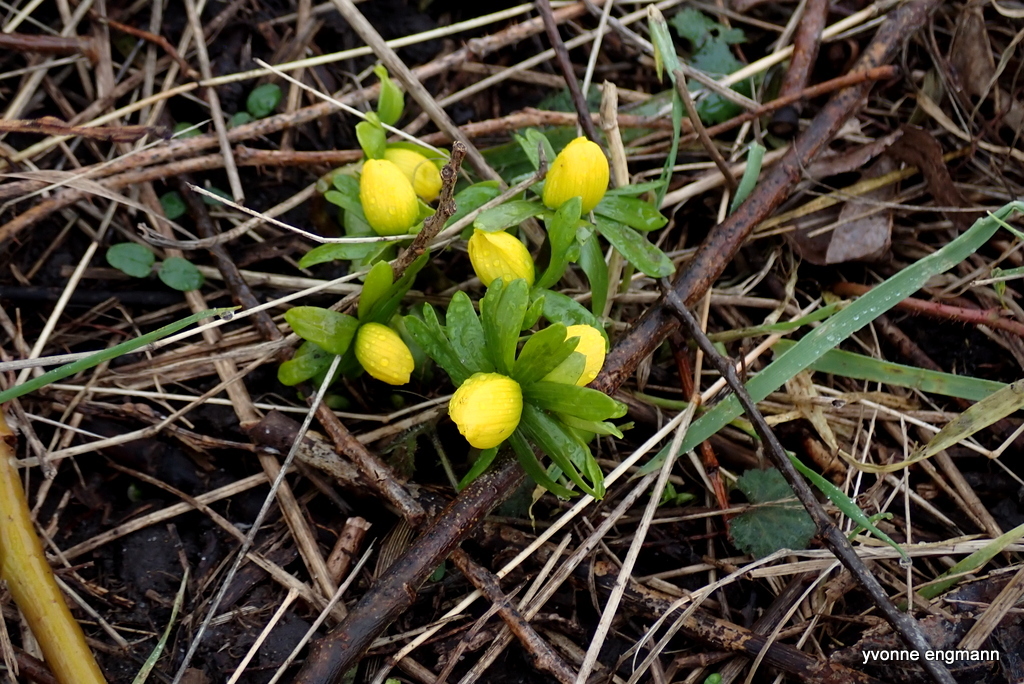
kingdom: Plantae
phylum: Tracheophyta
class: Magnoliopsida
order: Ranunculales
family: Ranunculaceae
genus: Eranthis
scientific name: Eranthis hyemalis
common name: Winter aconite
